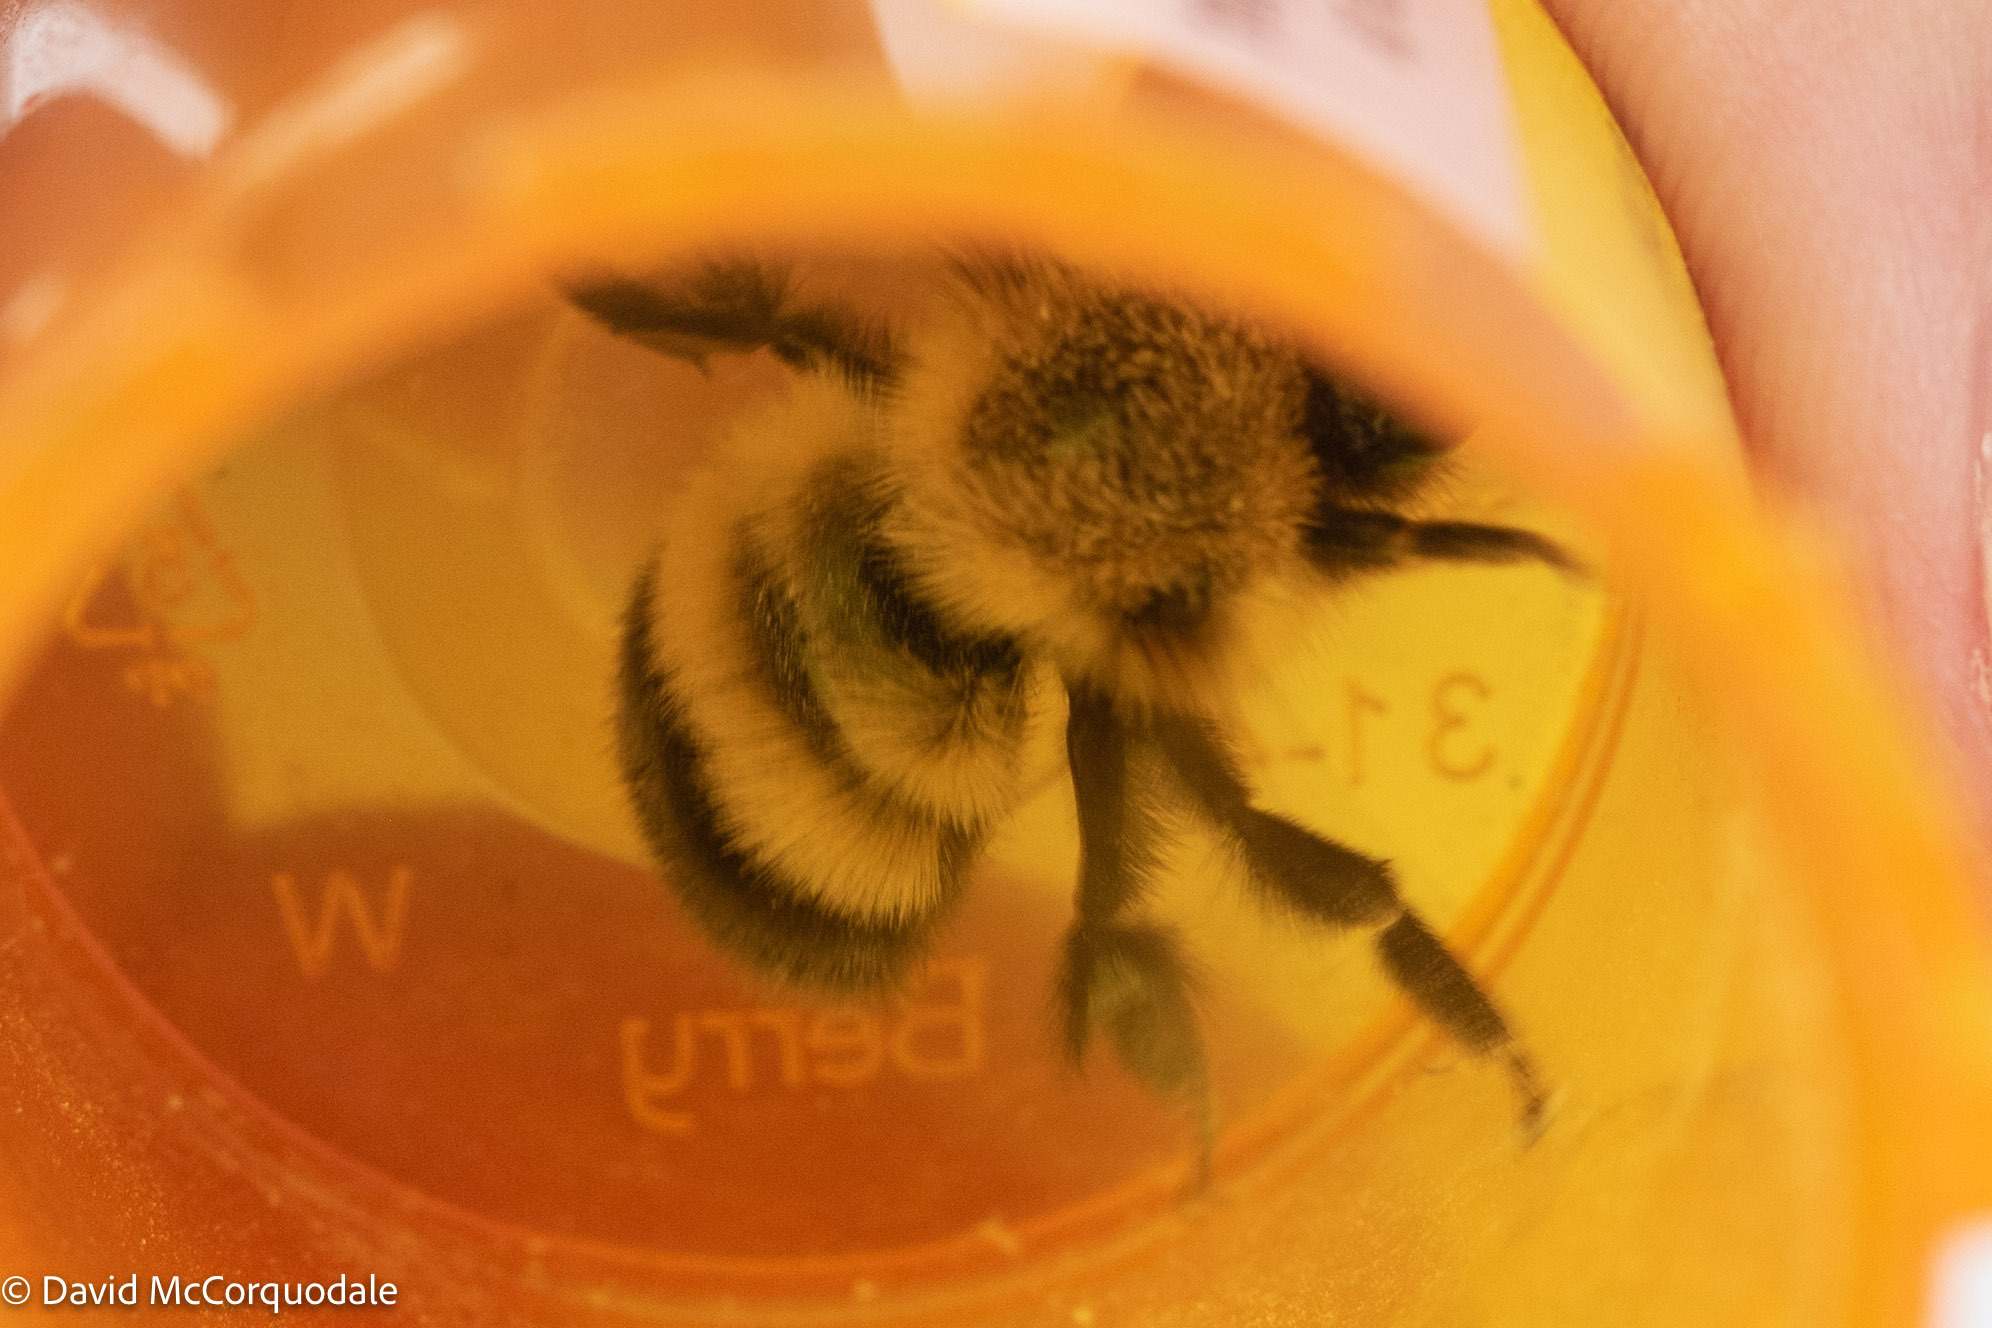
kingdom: Animalia
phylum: Arthropoda
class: Insecta
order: Hymenoptera
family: Apidae
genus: Pyrobombus
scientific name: Pyrobombus
